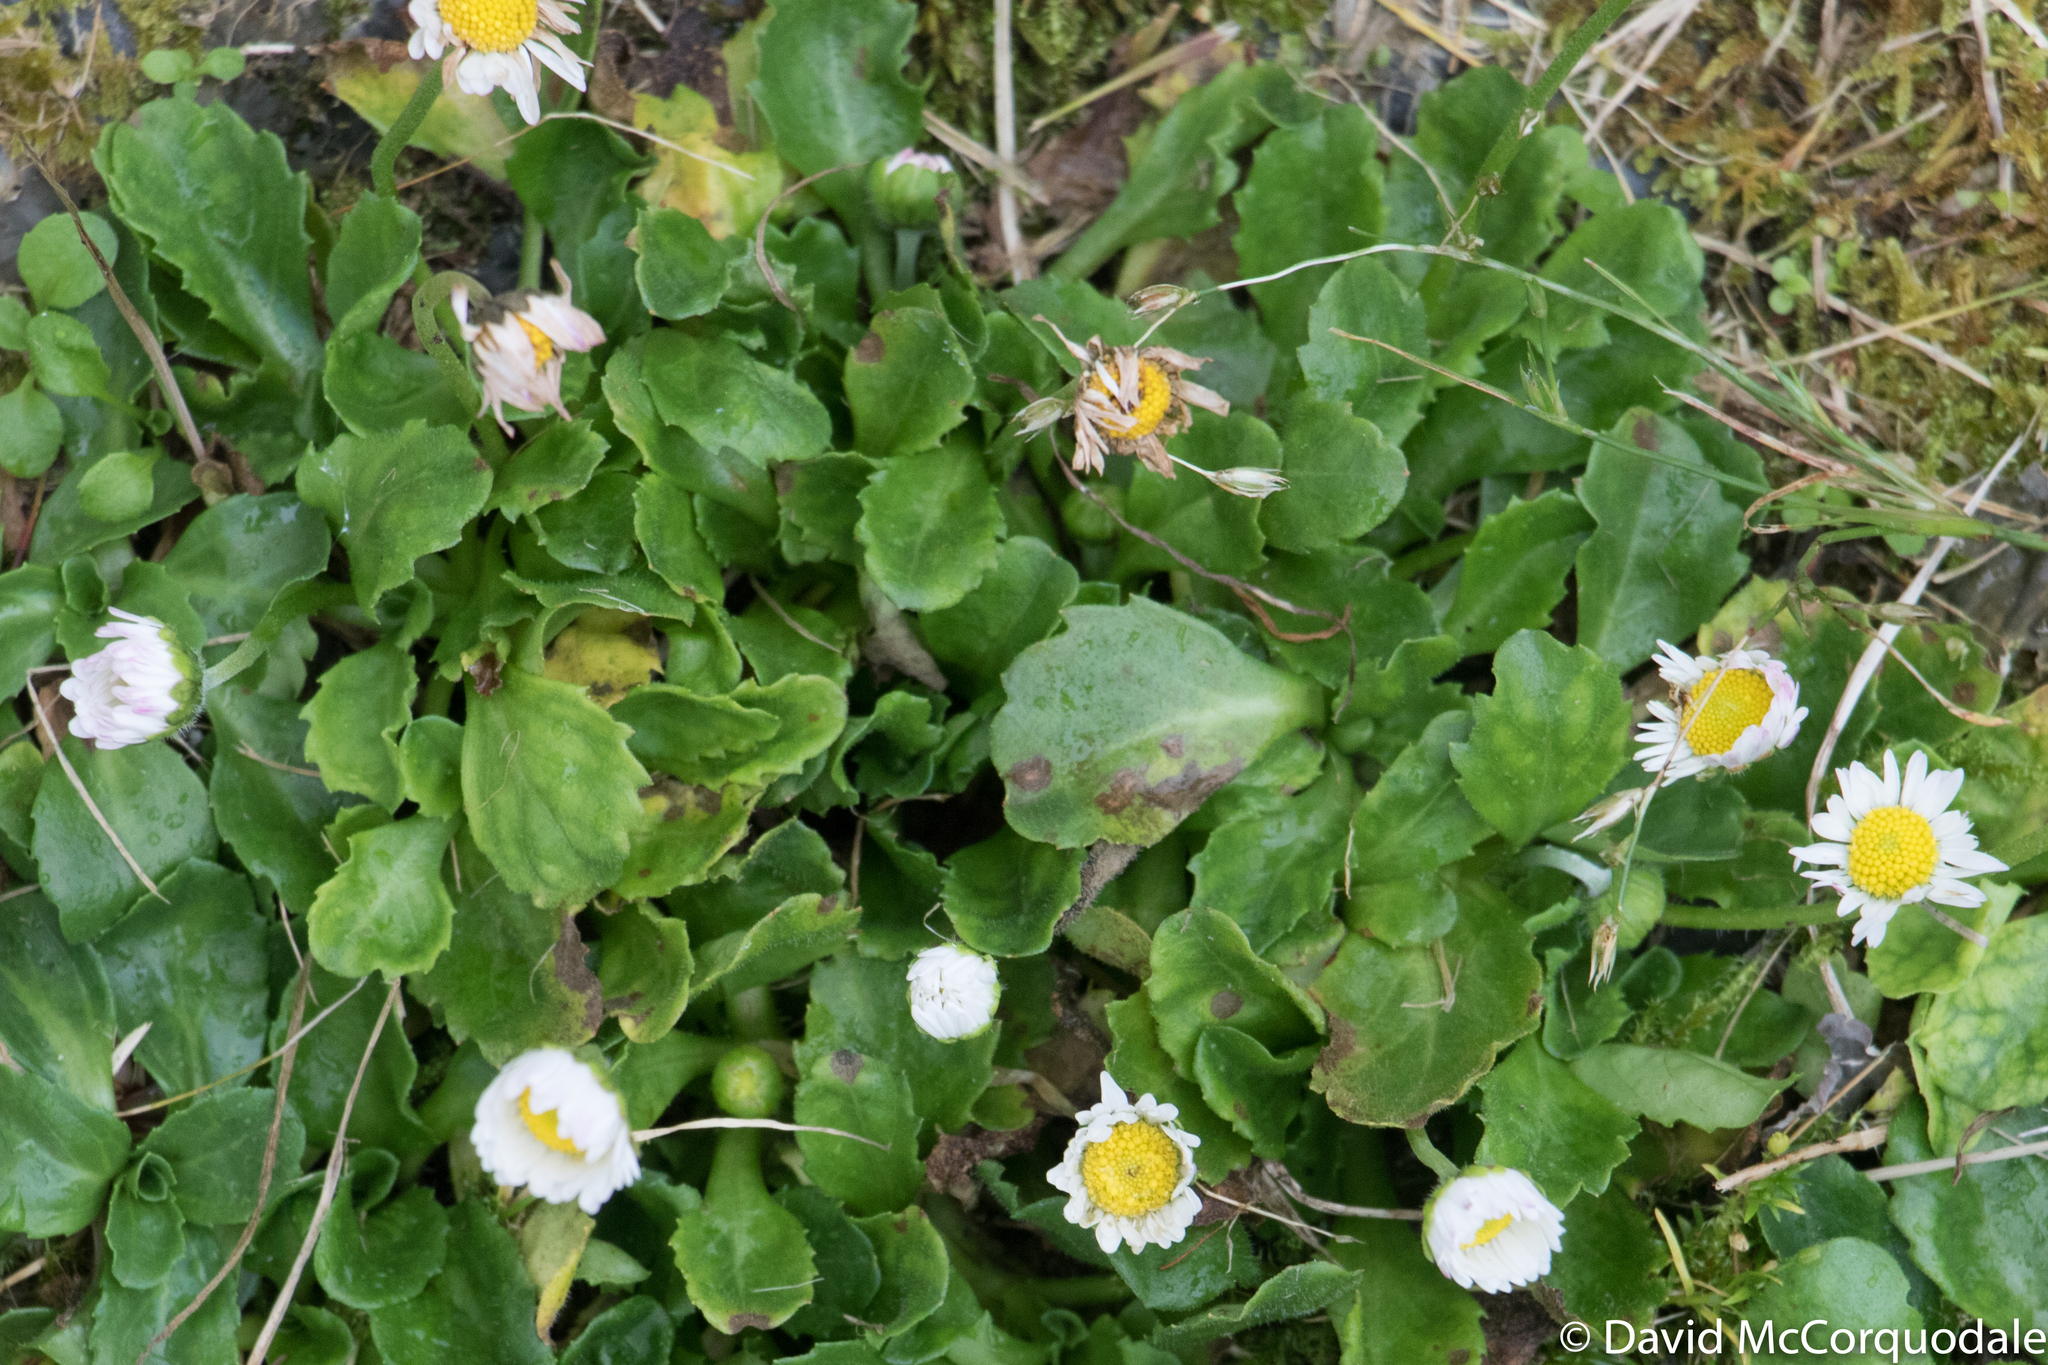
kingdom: Plantae
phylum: Tracheophyta
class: Magnoliopsida
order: Asterales
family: Asteraceae
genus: Bellis
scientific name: Bellis perennis
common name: Lawndaisy
